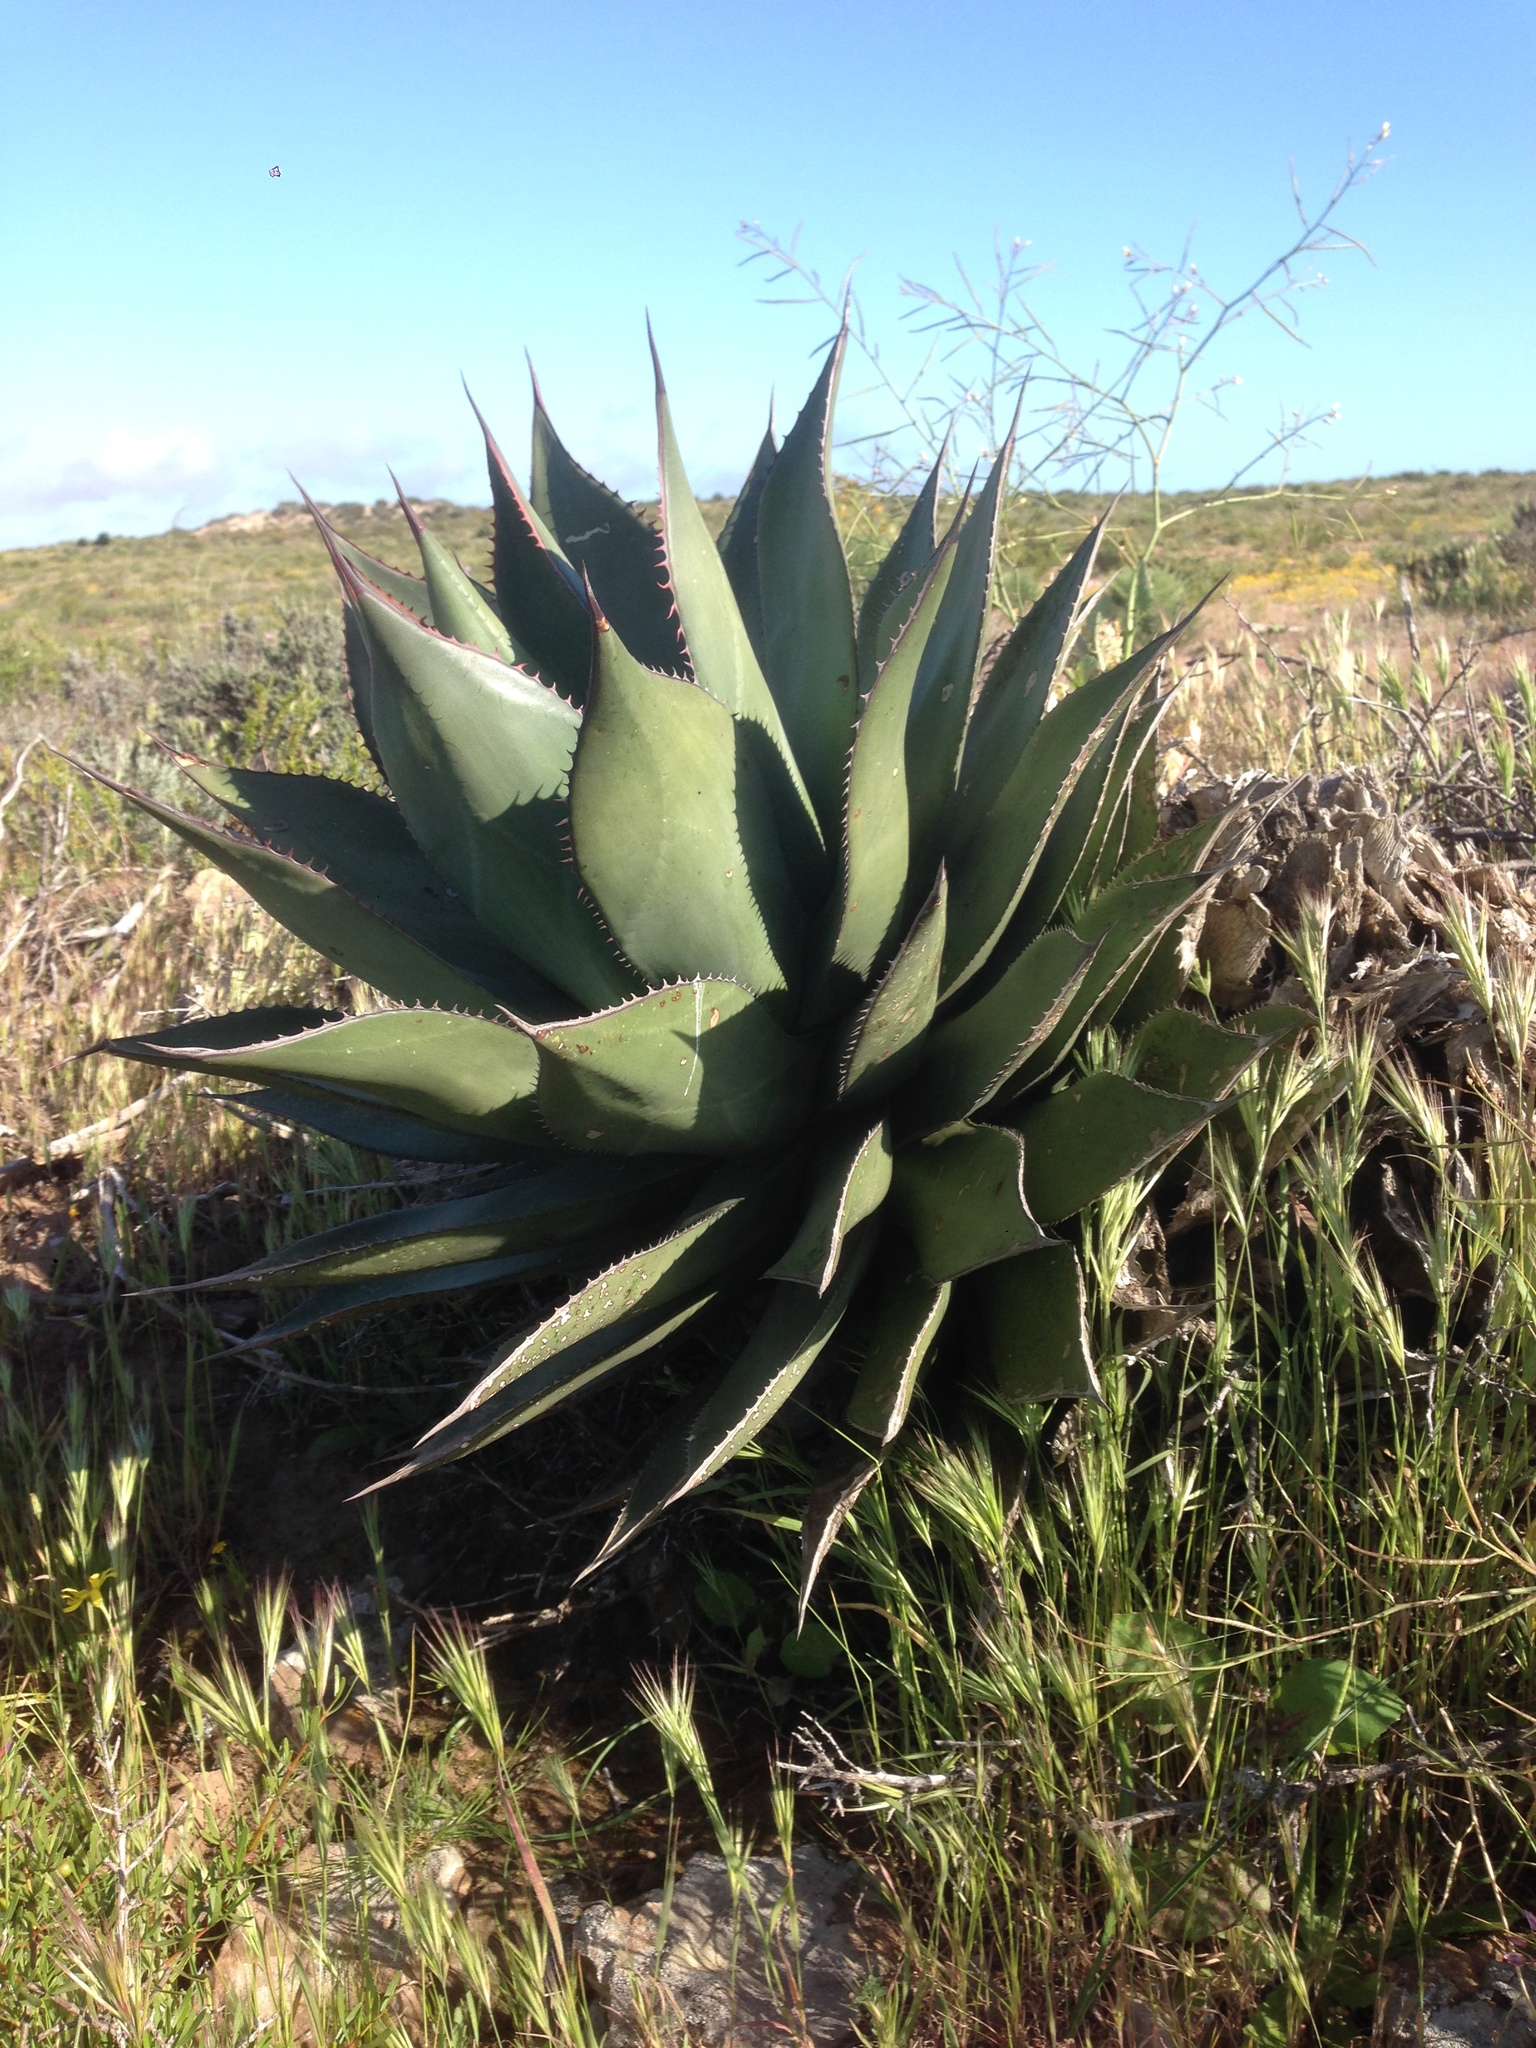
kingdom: Plantae
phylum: Tracheophyta
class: Liliopsida
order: Asparagales
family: Asparagaceae
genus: Agave
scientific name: Agave shawii
